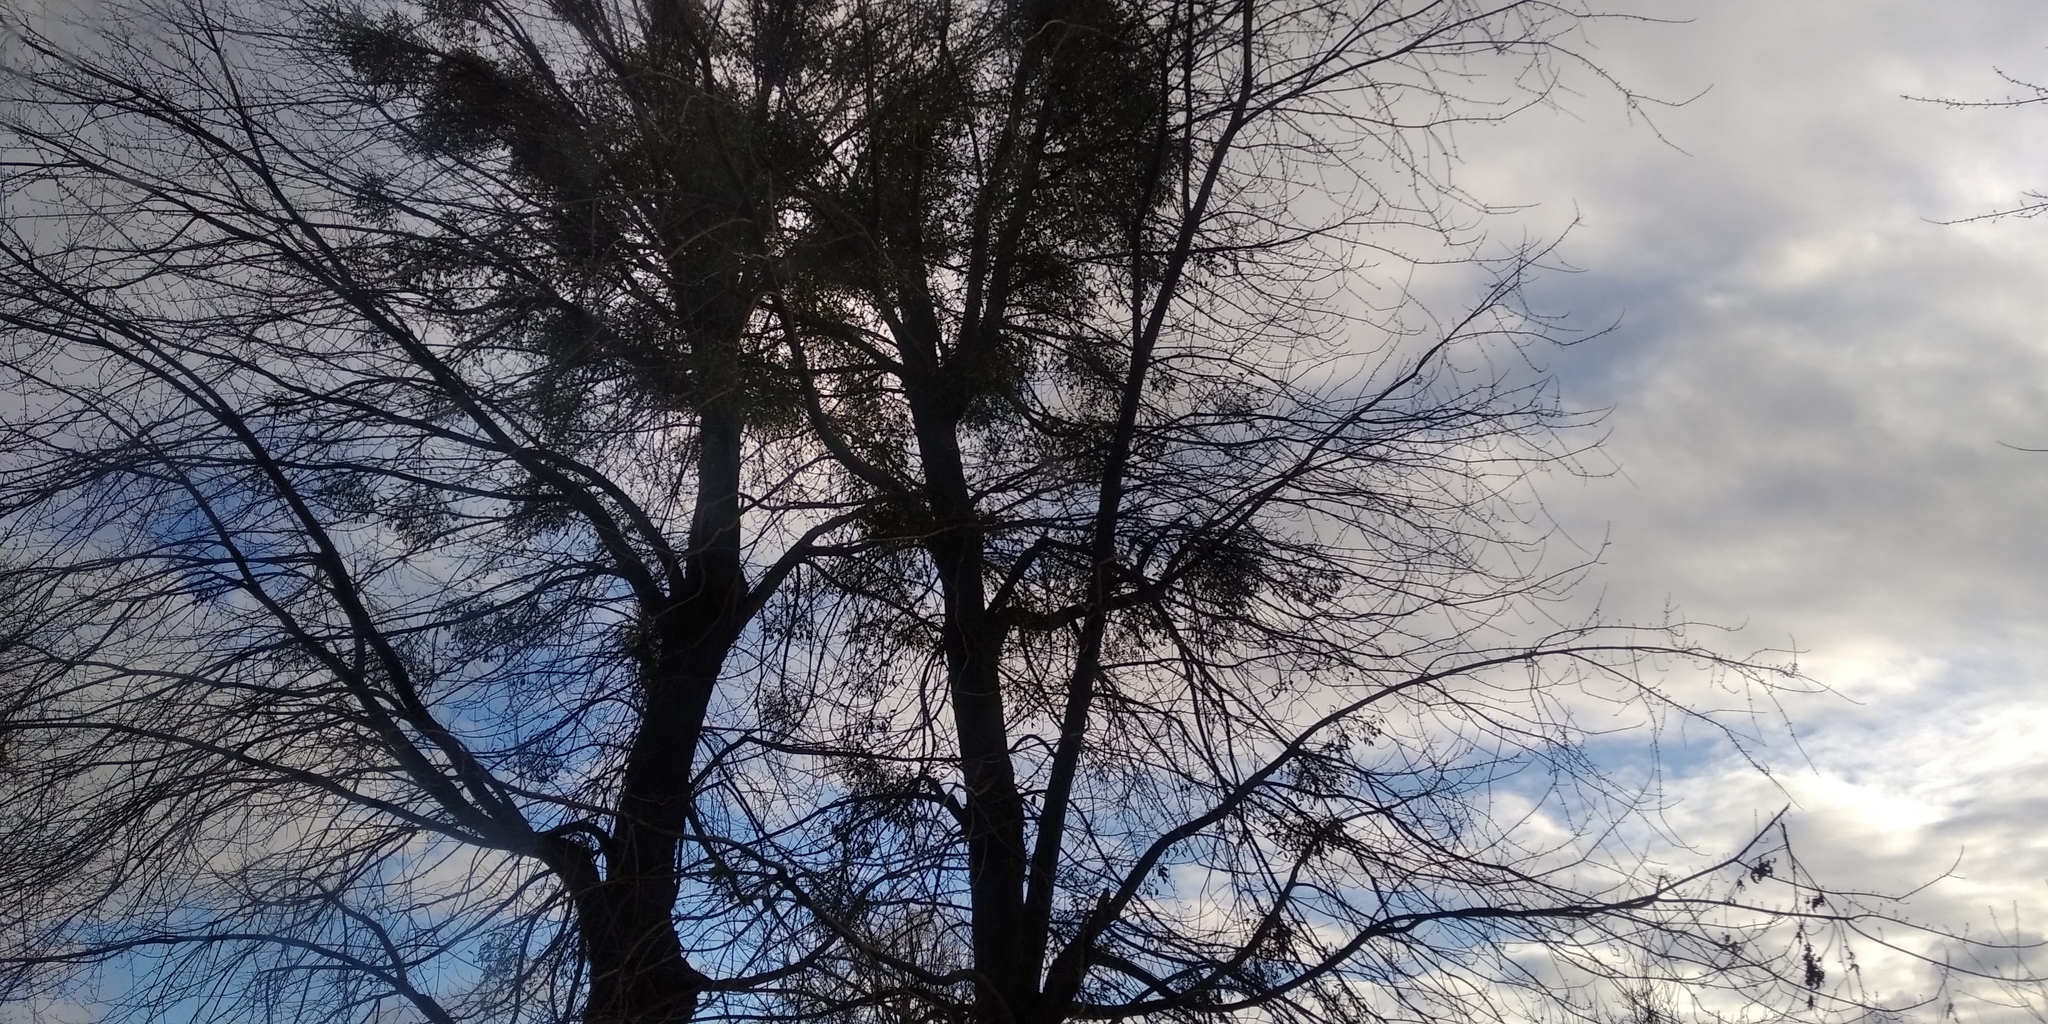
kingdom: Plantae
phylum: Tracheophyta
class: Magnoliopsida
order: Santalales
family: Viscaceae
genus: Viscum
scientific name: Viscum album
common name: Mistletoe
